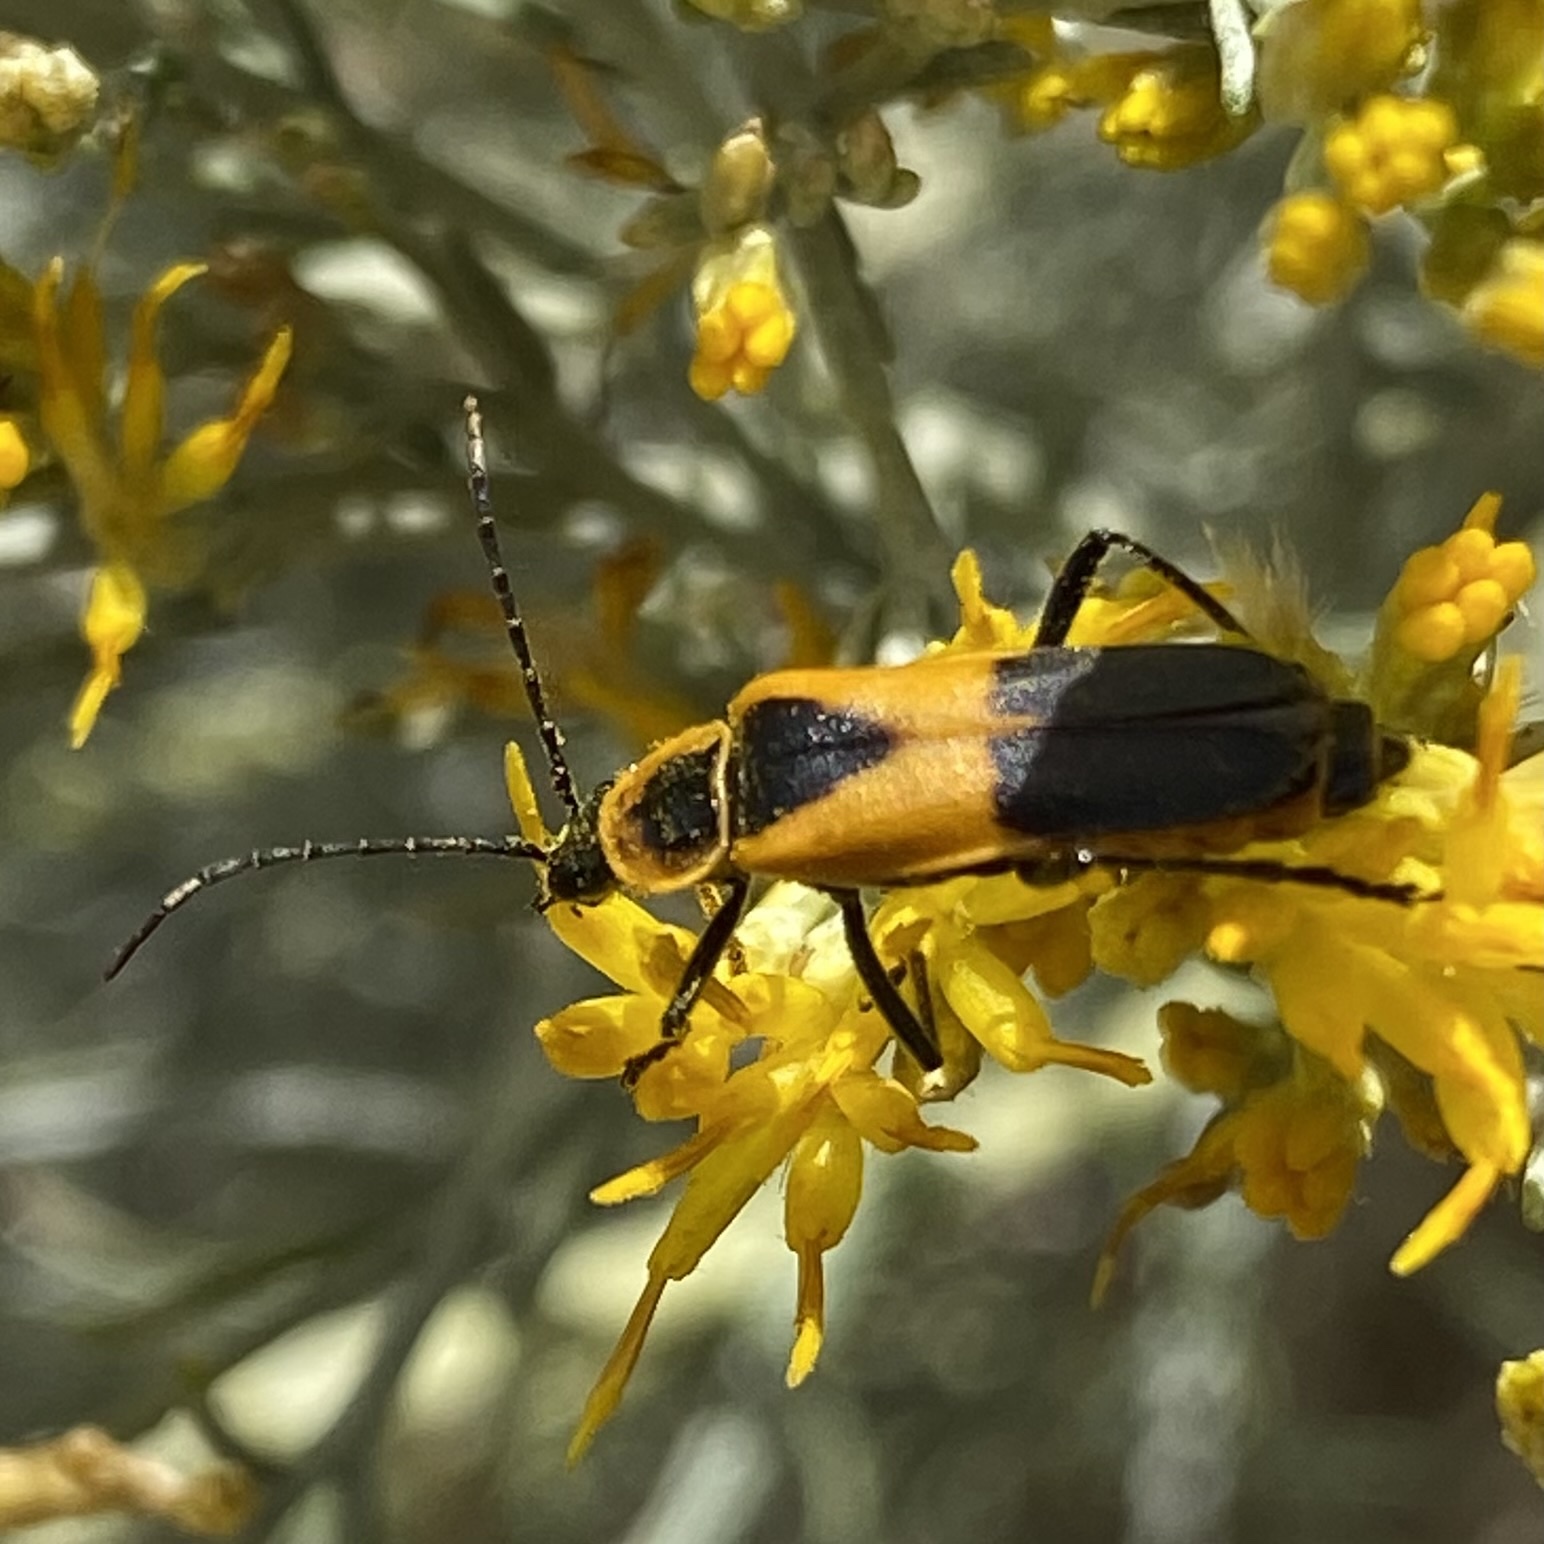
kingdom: Animalia
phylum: Arthropoda
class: Insecta
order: Coleoptera
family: Cantharidae
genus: Chauliognathus
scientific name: Chauliognathus basalis
